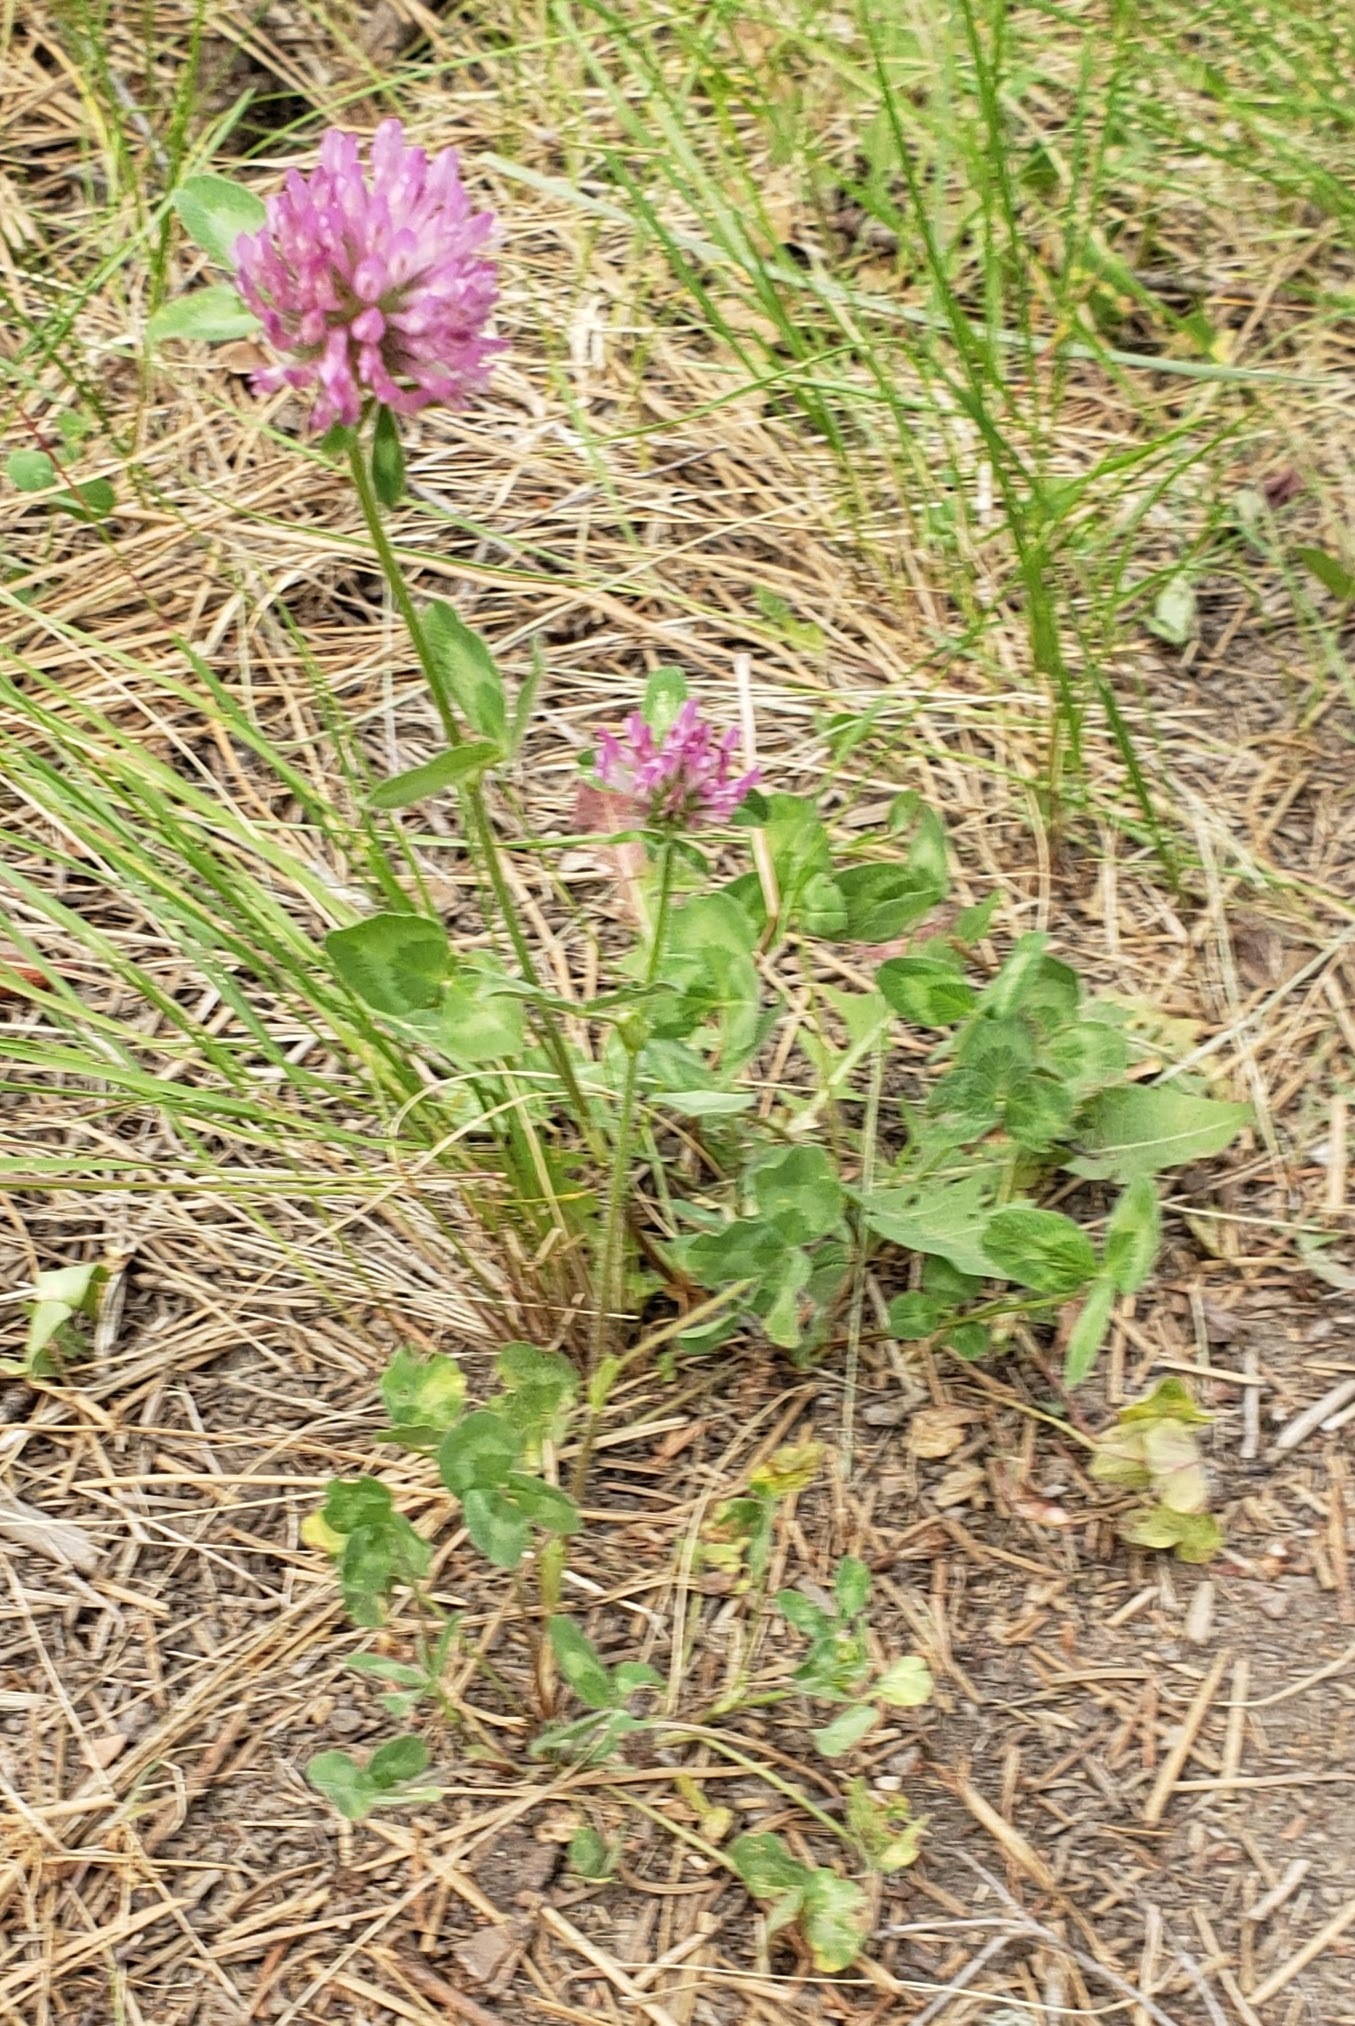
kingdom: Plantae
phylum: Tracheophyta
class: Magnoliopsida
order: Fabales
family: Fabaceae
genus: Trifolium
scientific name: Trifolium pratense
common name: Red clover
